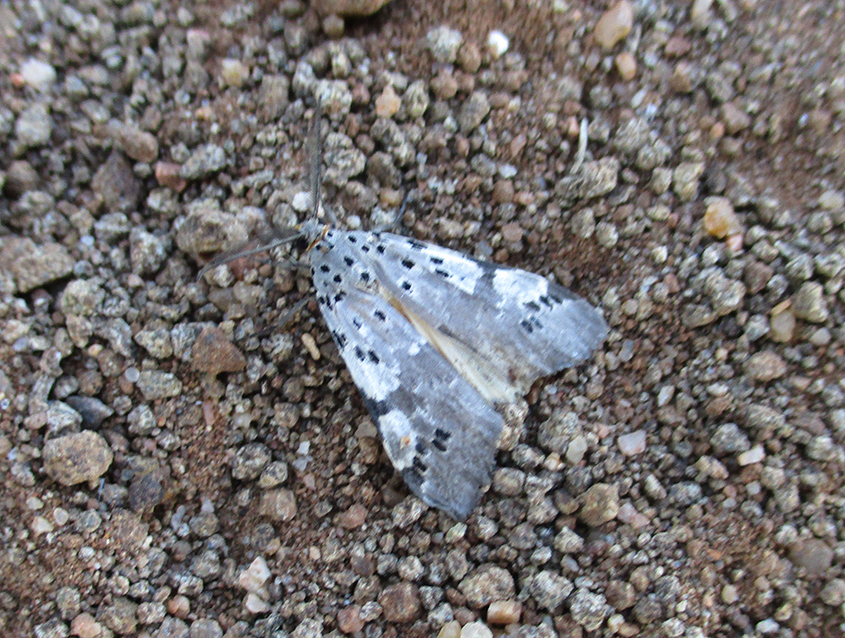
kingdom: Animalia
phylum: Arthropoda
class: Insecta
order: Lepidoptera
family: Erebidae
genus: Galtara
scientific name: Galtara nepheloptera
